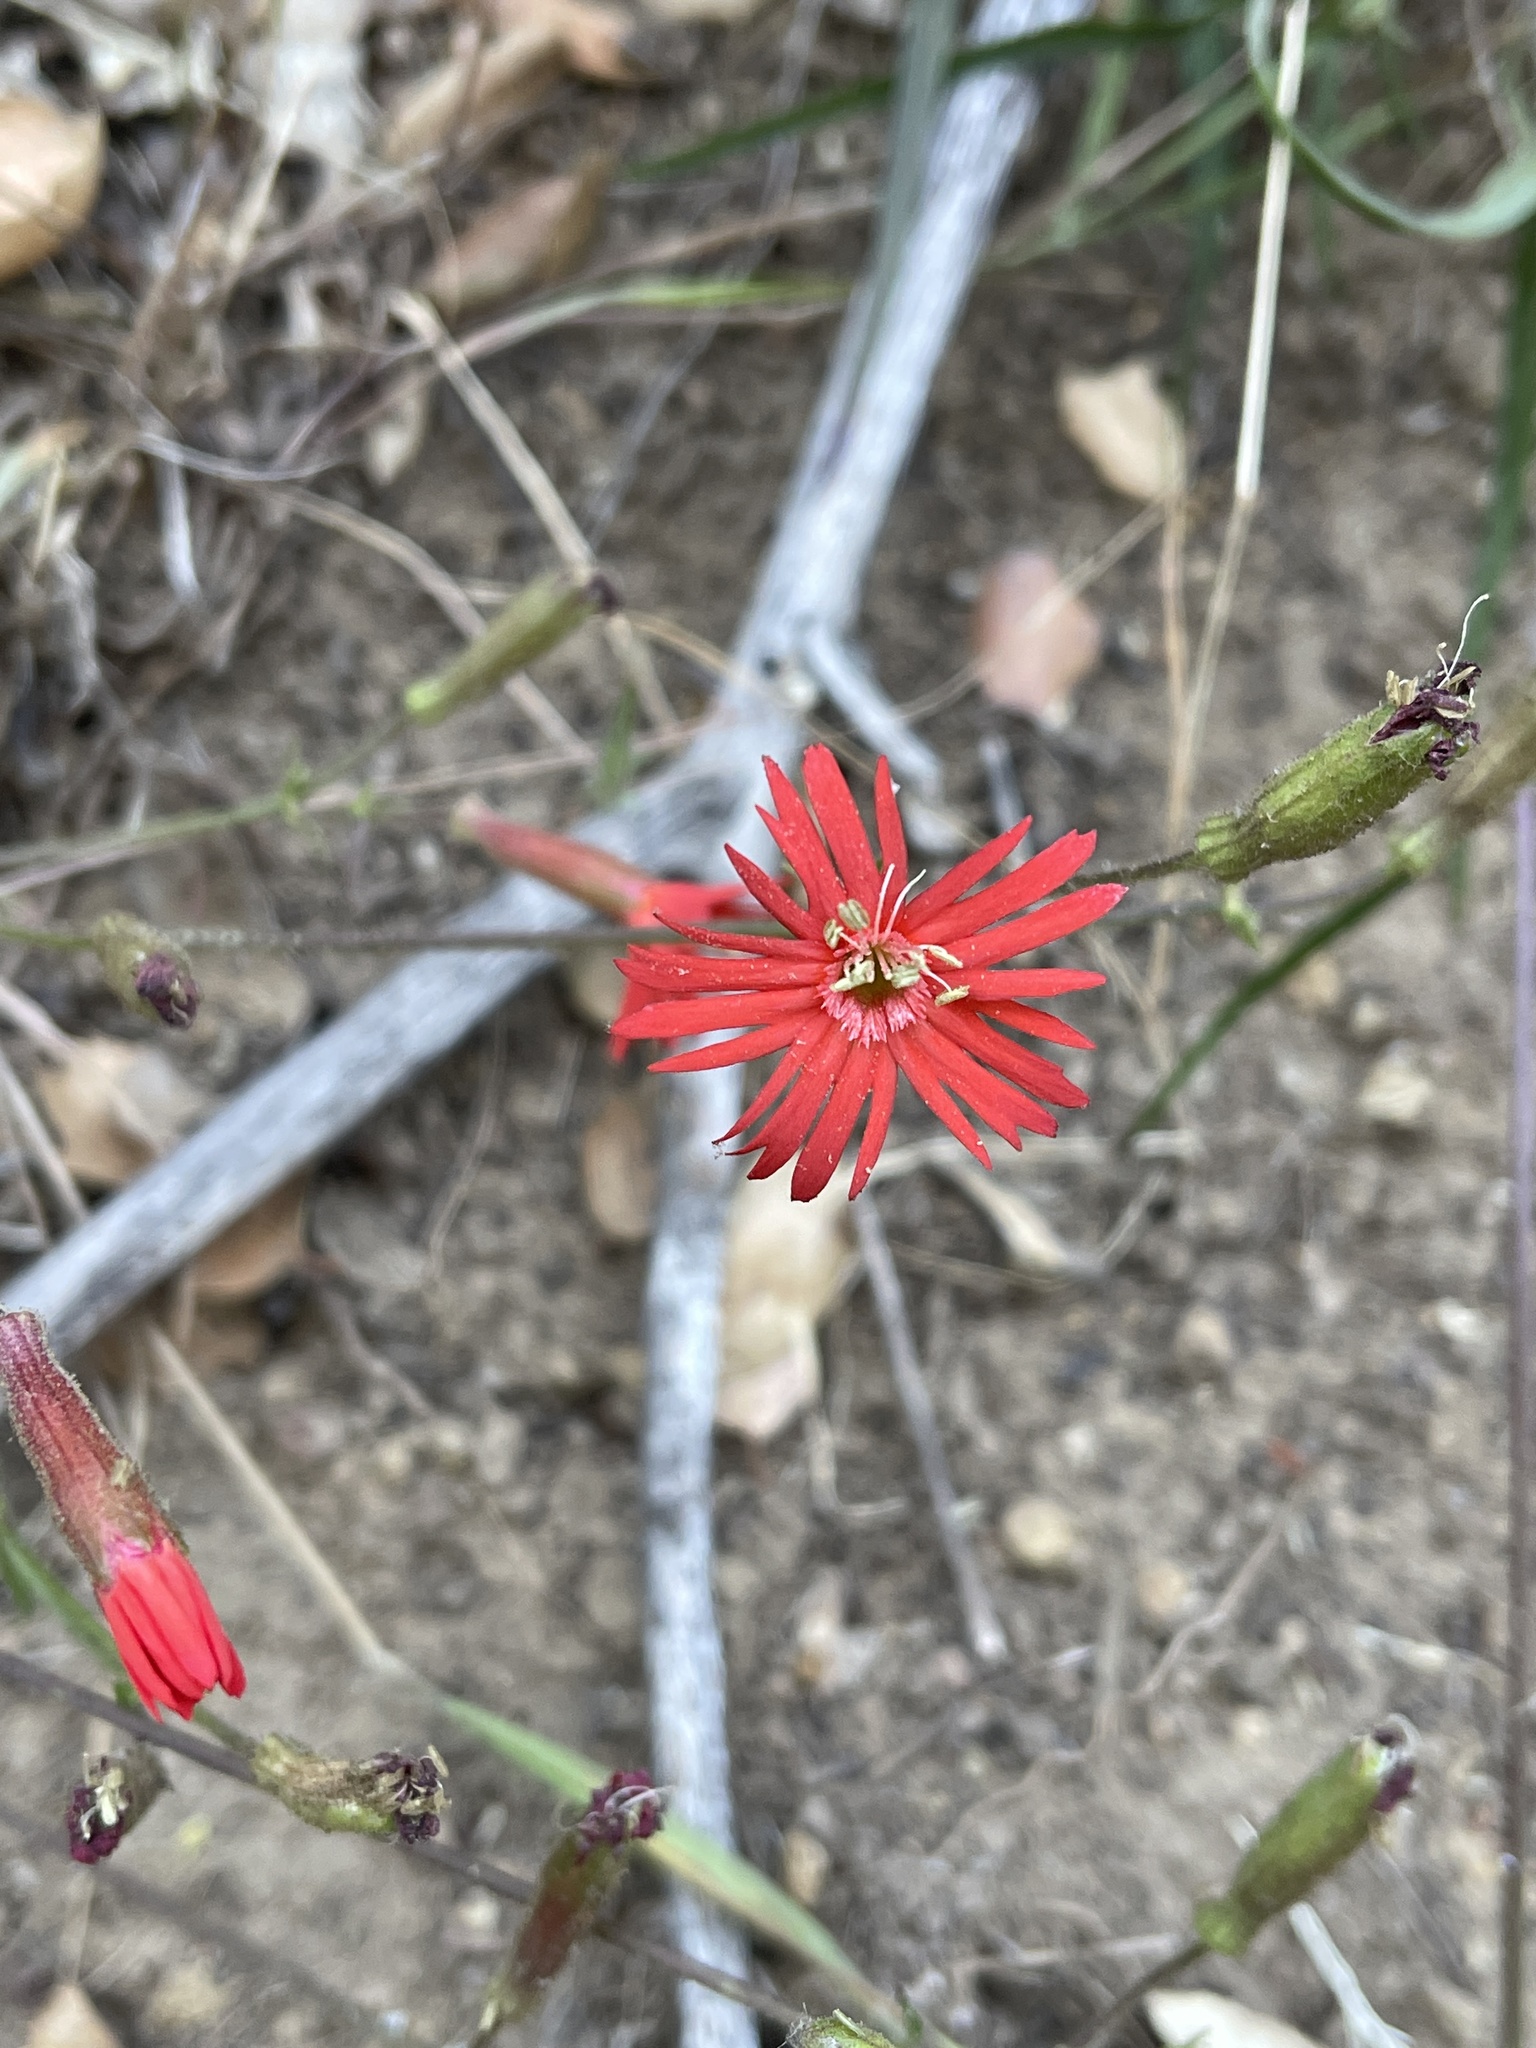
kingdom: Plantae
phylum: Tracheophyta
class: Magnoliopsida
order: Caryophyllales
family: Caryophyllaceae
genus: Silene
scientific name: Silene laciniata
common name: Indian-pink
